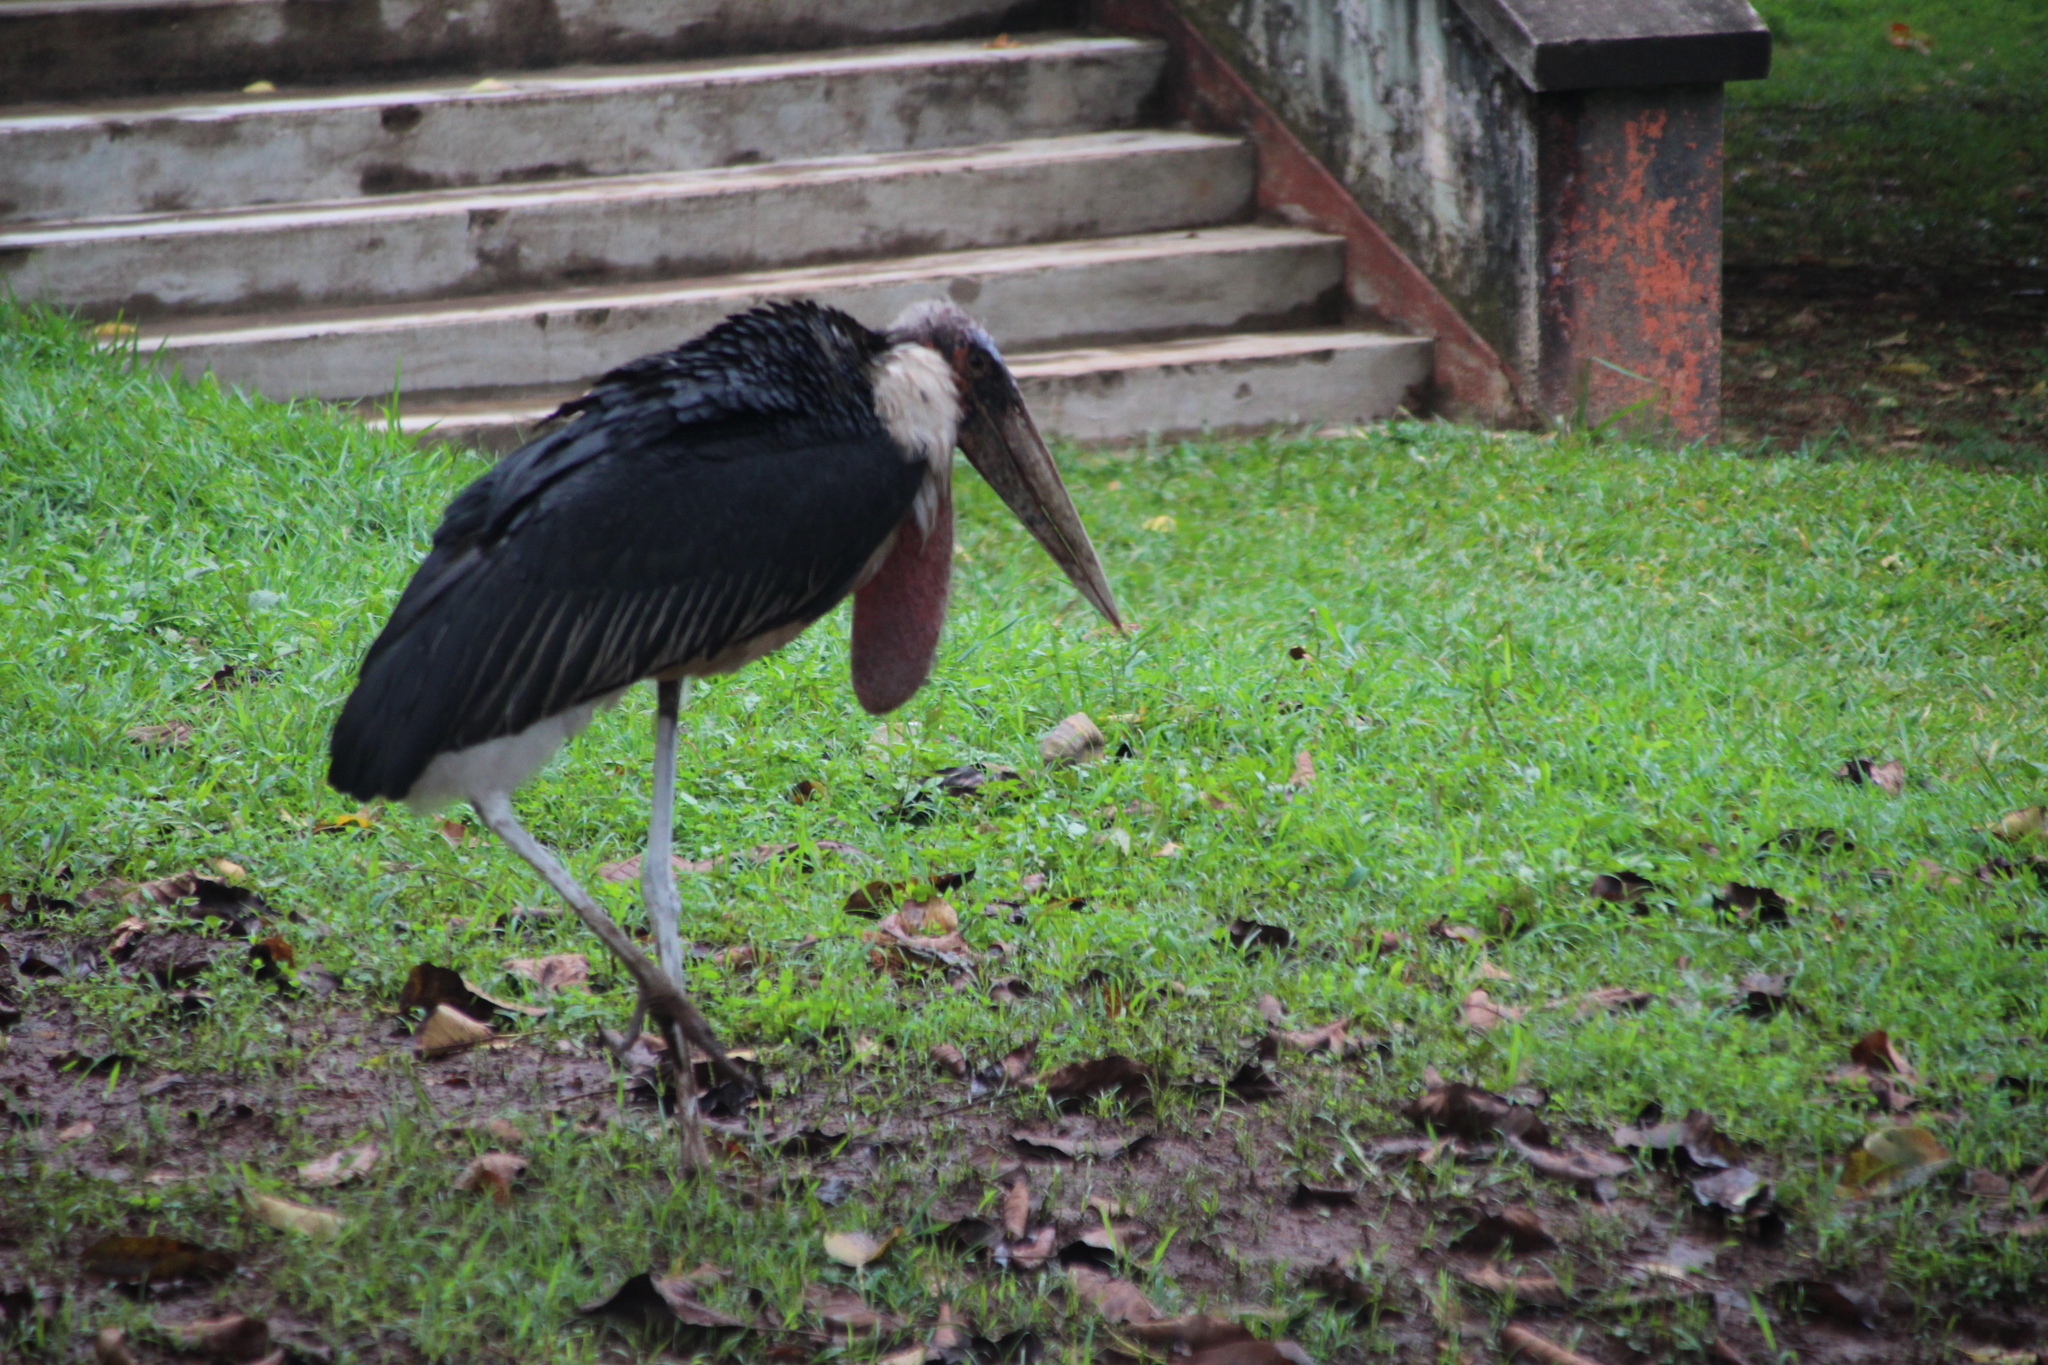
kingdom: Animalia
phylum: Chordata
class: Aves
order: Ciconiiformes
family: Ciconiidae
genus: Leptoptilos
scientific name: Leptoptilos crumenifer
